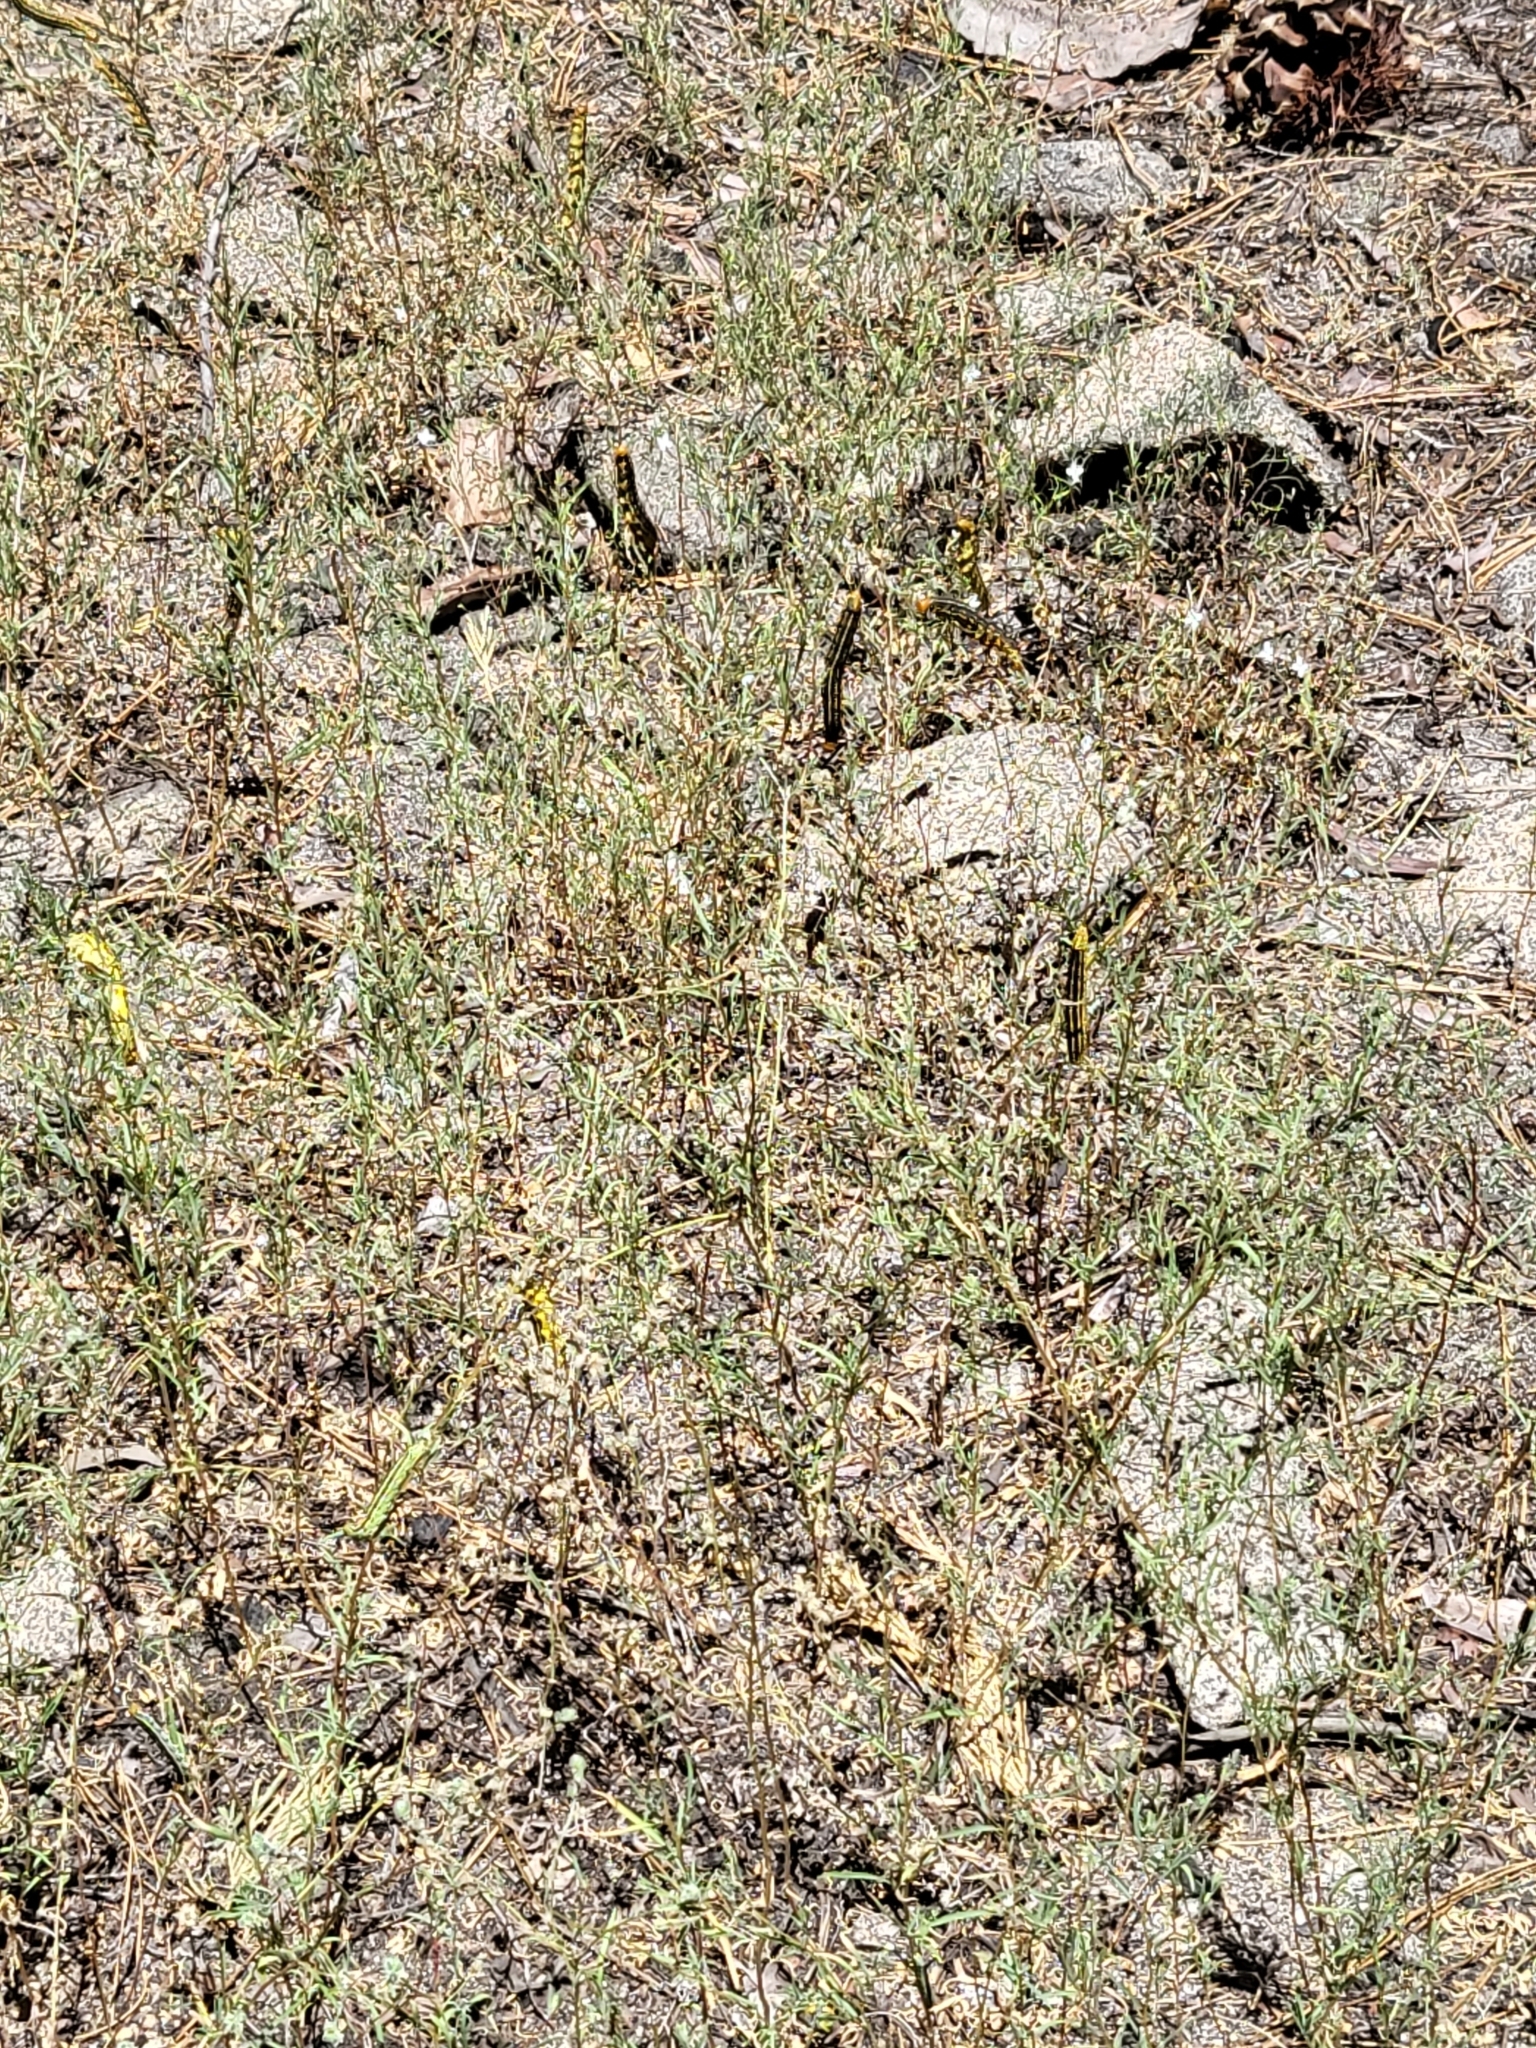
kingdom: Animalia
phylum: Arthropoda
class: Insecta
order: Lepidoptera
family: Sphingidae
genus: Hyles
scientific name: Hyles lineata
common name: White-lined sphinx
